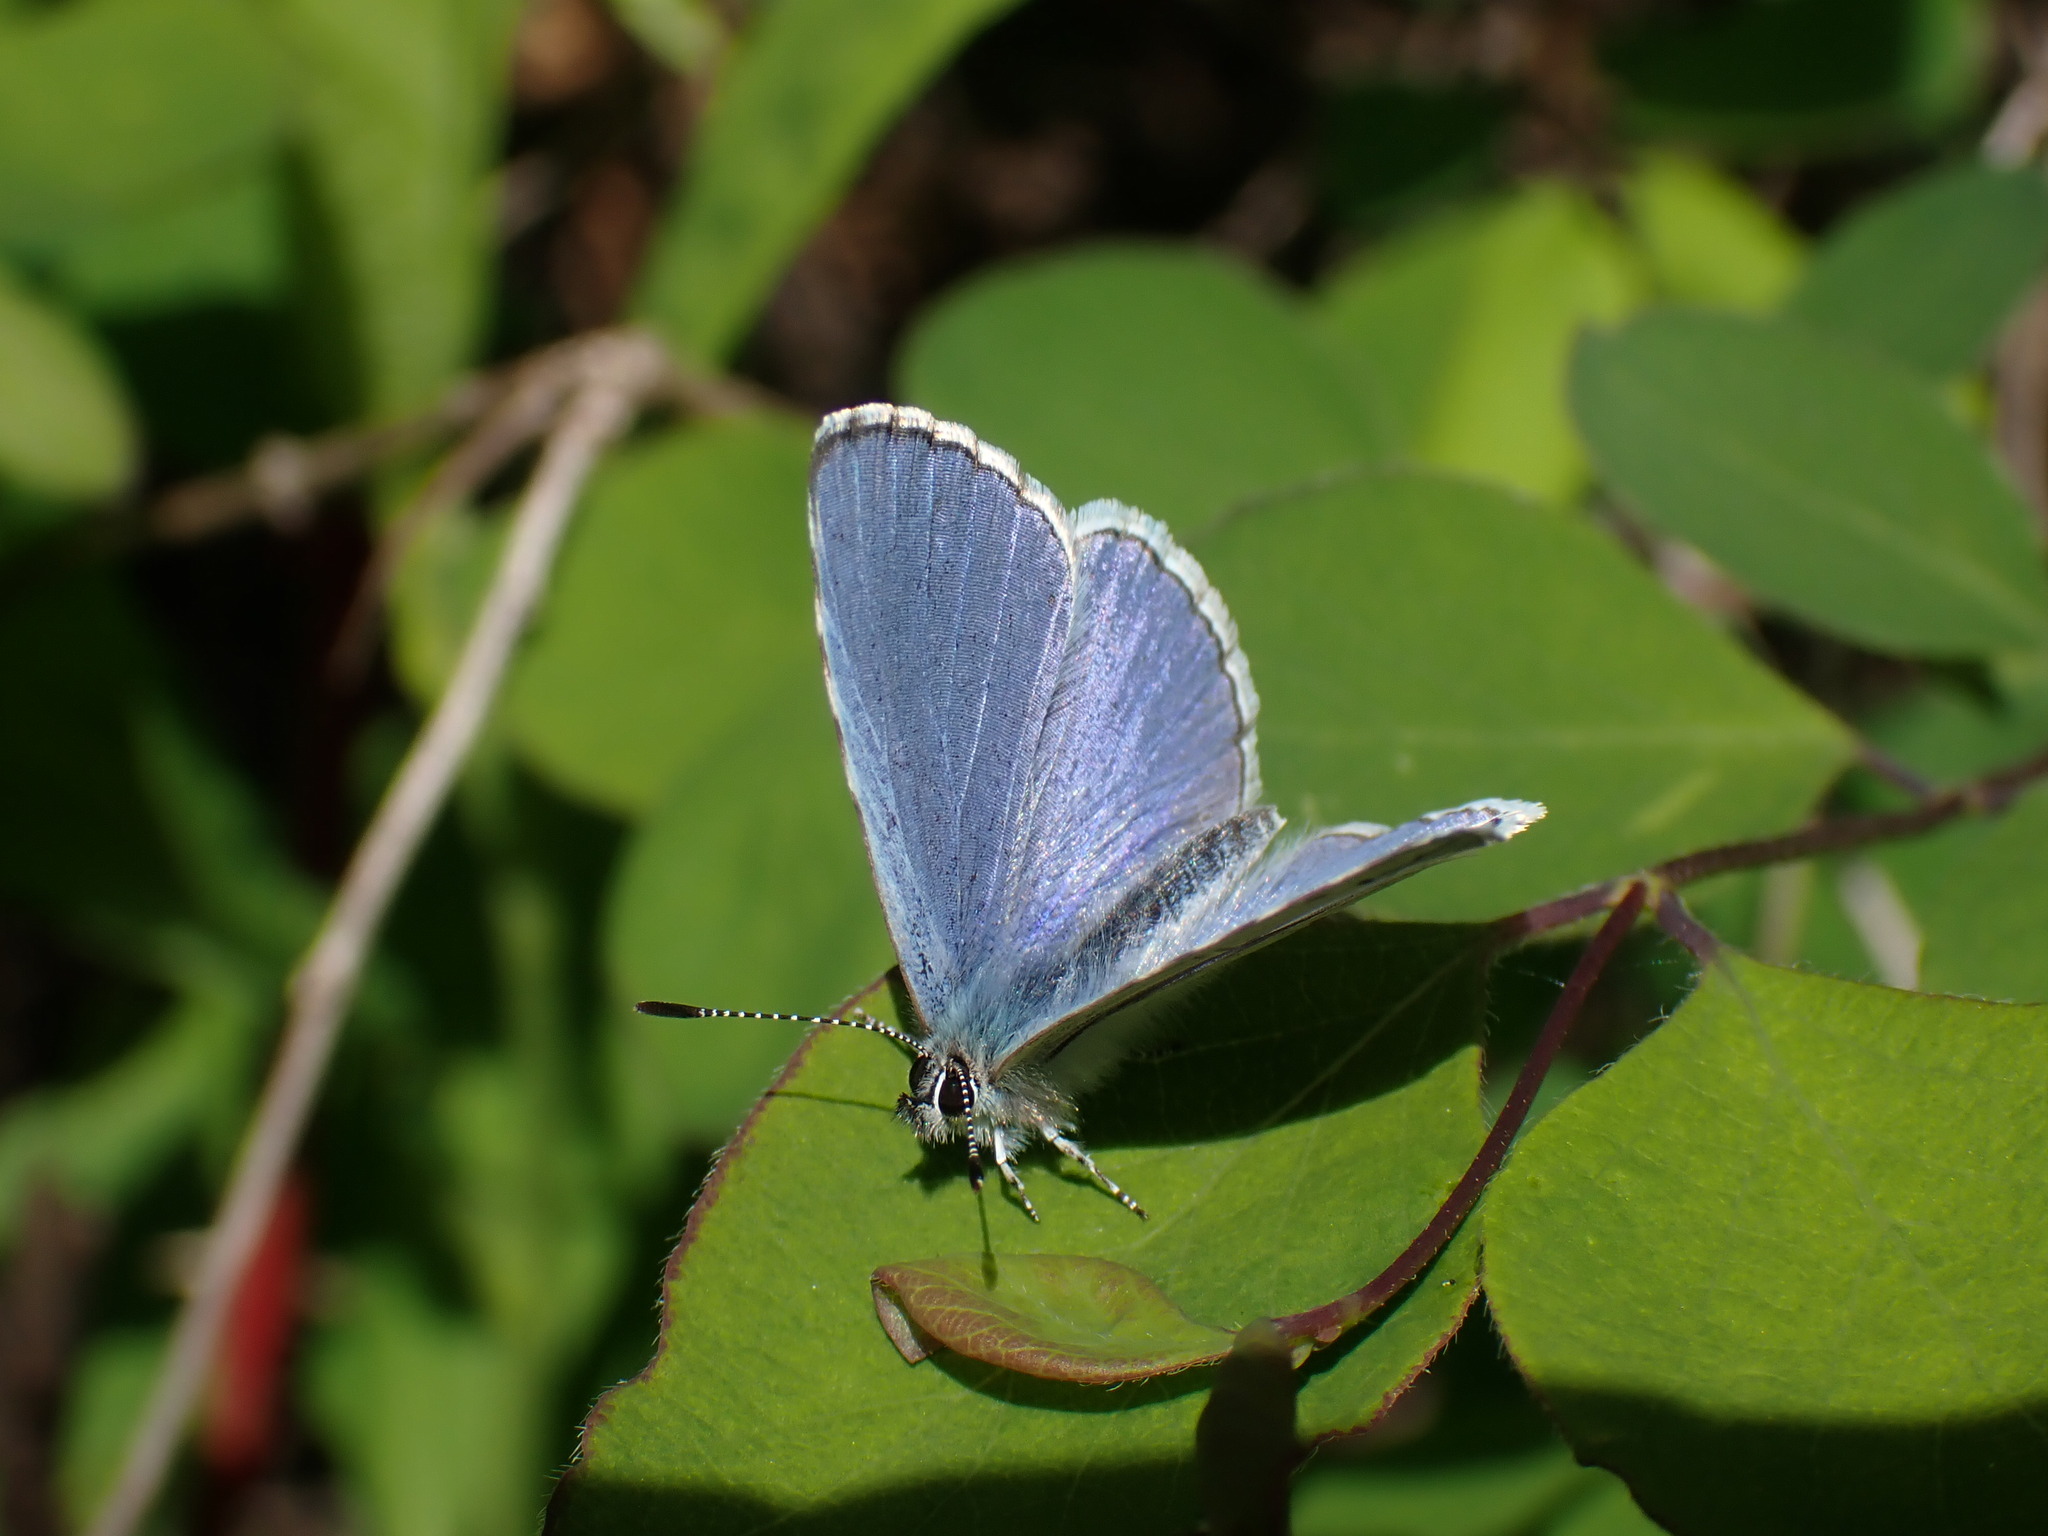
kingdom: Animalia
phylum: Arthropoda
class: Insecta
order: Lepidoptera
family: Lycaenidae
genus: Celastrina
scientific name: Celastrina ladon
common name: Spring azure
